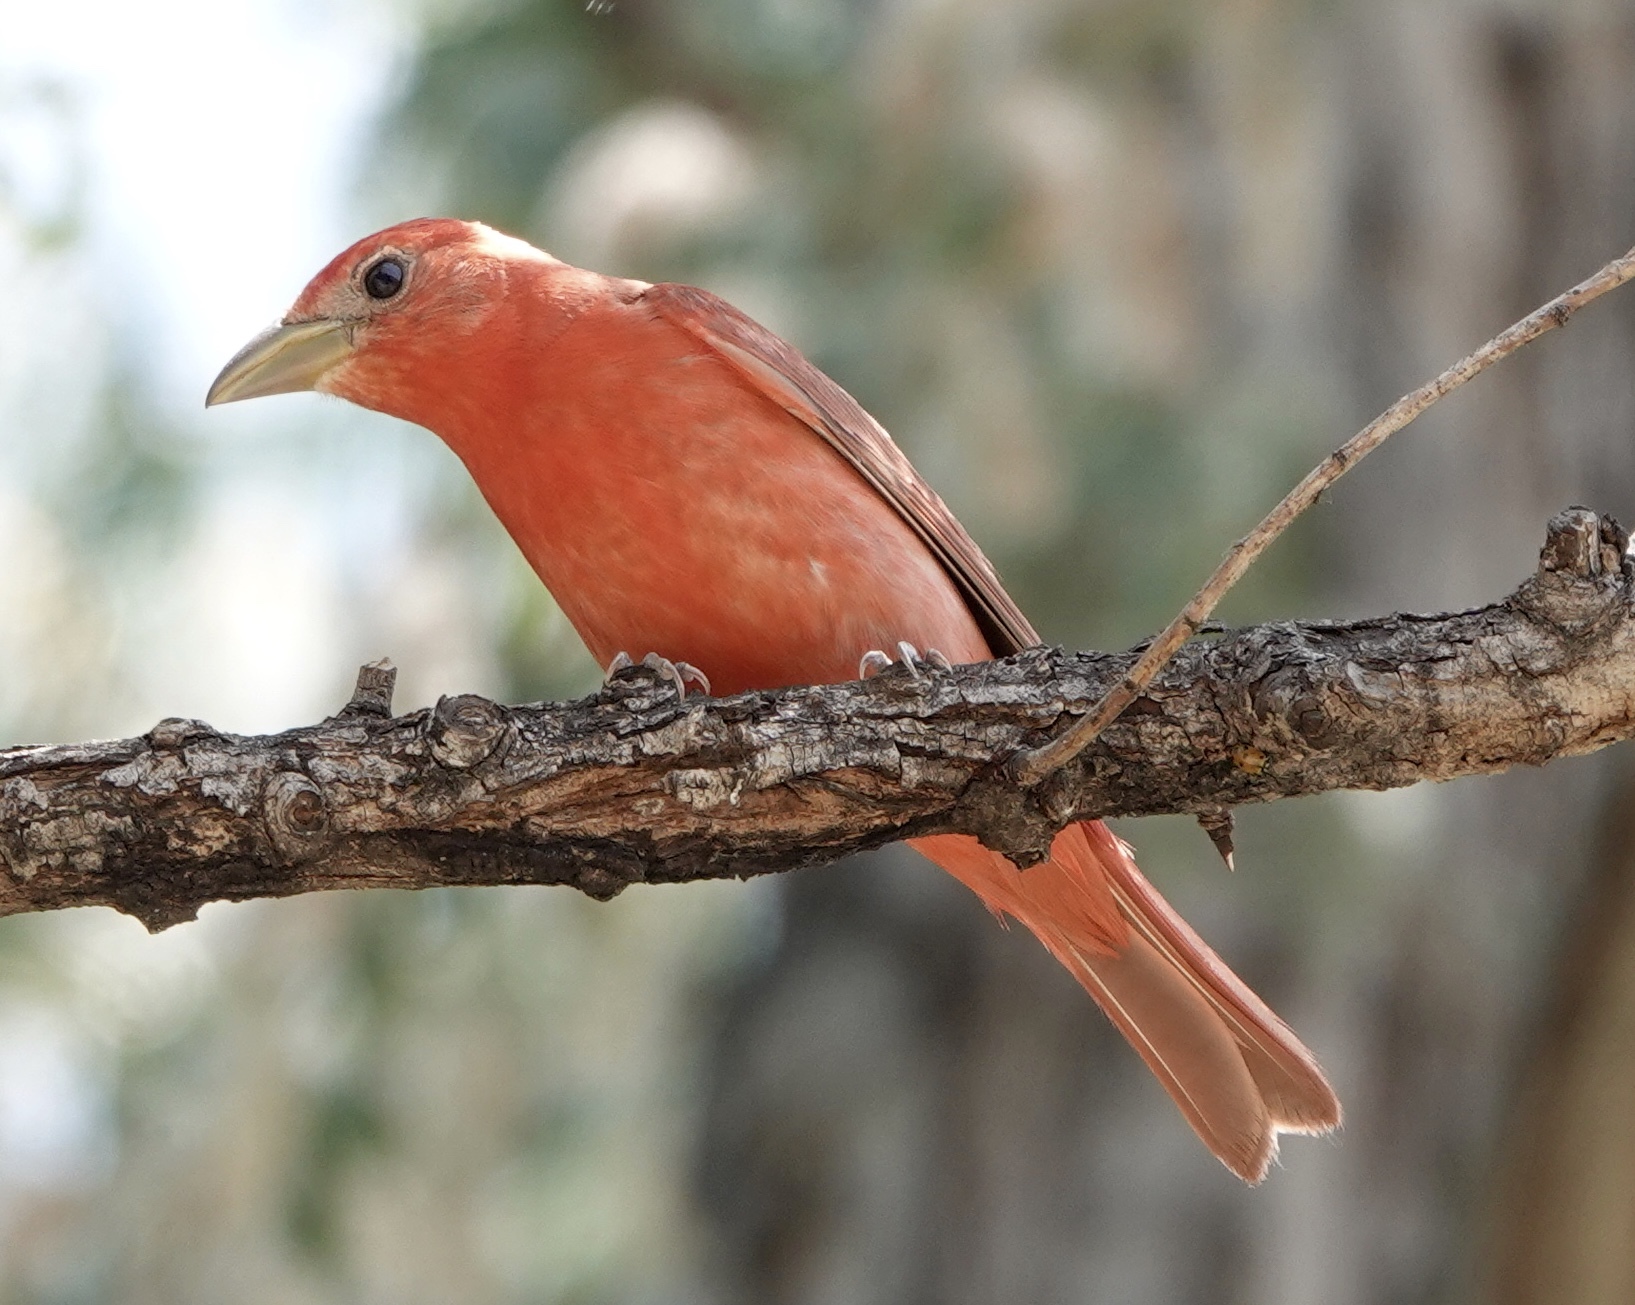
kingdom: Animalia
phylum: Chordata
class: Aves
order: Passeriformes
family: Cardinalidae
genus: Piranga
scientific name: Piranga rubra
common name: Summer tanager
